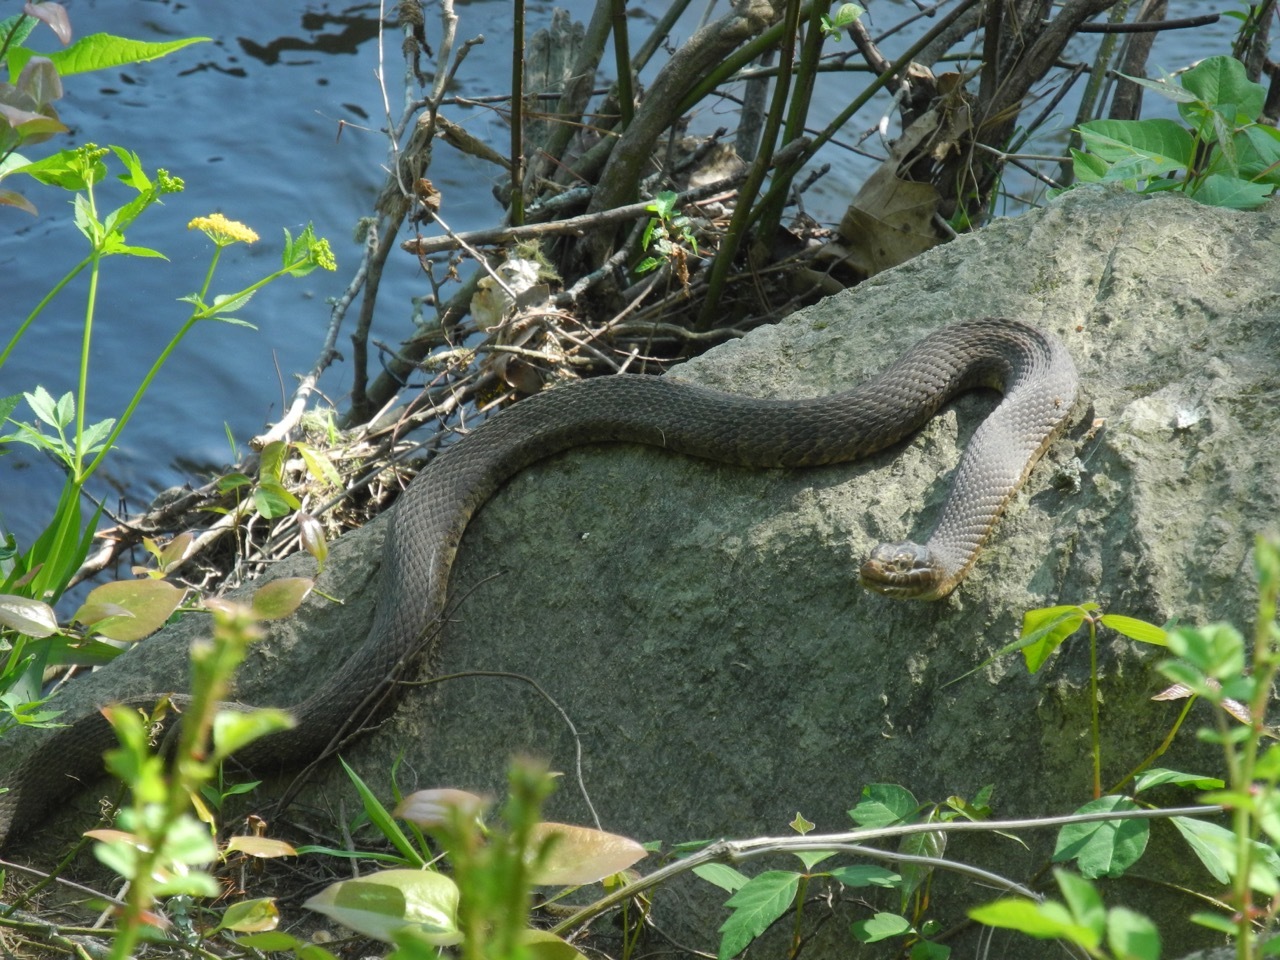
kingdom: Animalia
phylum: Chordata
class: Squamata
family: Colubridae
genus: Nerodia
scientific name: Nerodia sipedon
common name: Northern water snake
